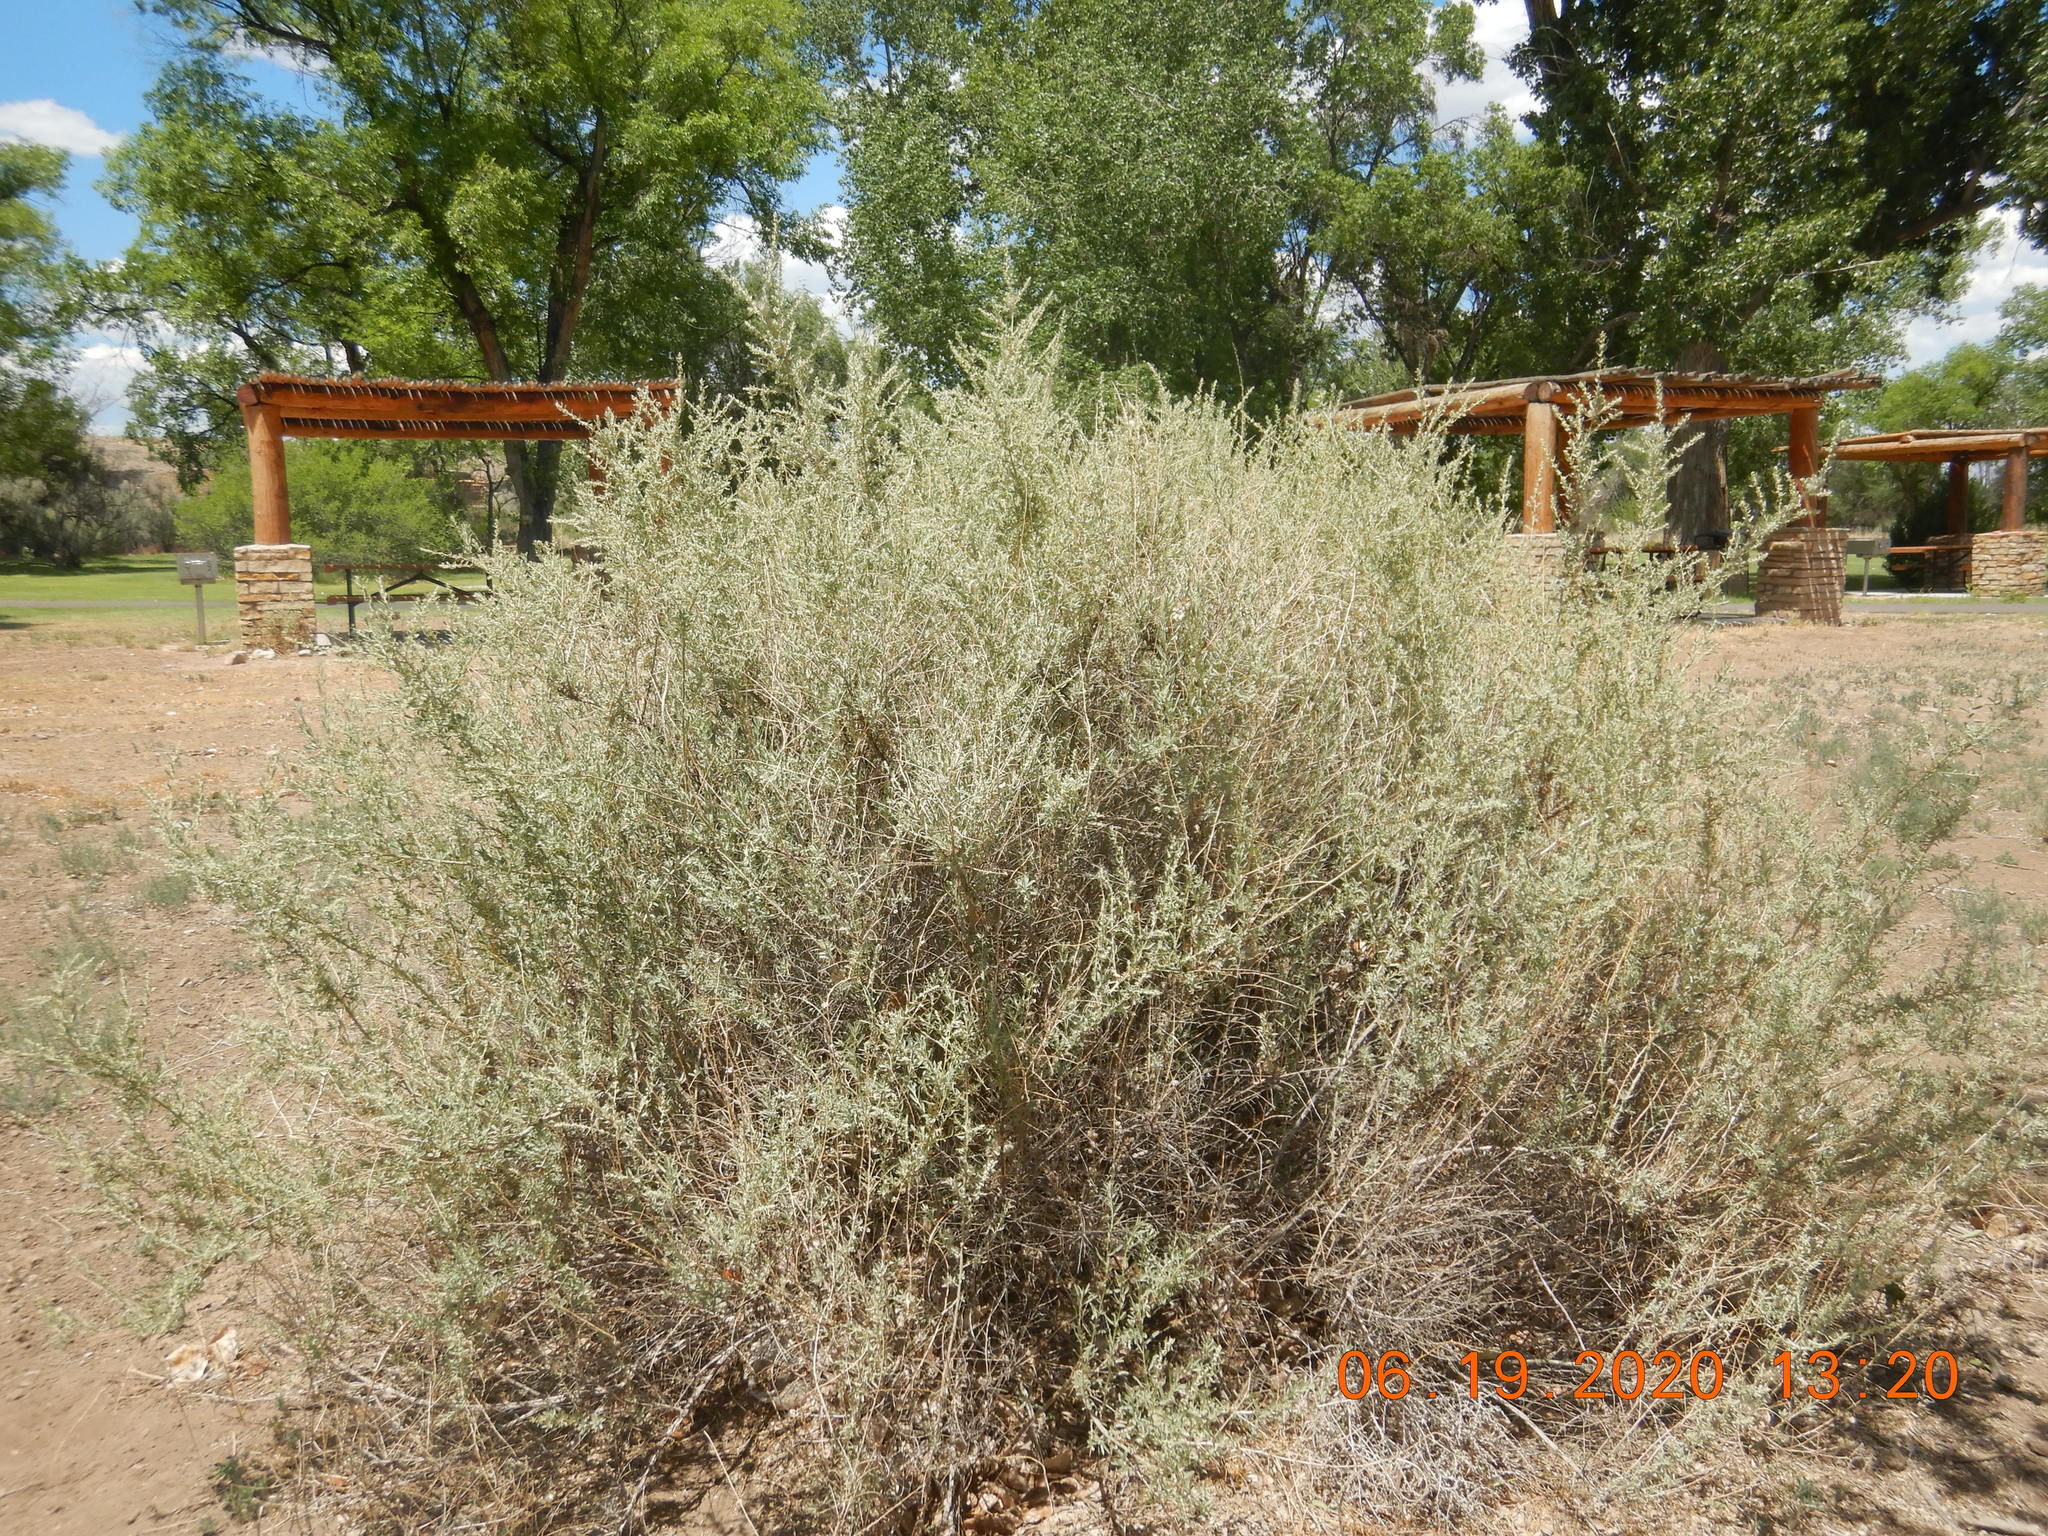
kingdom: Plantae
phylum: Tracheophyta
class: Magnoliopsida
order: Asterales
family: Asteraceae
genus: Artemisia
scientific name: Artemisia tridentata
